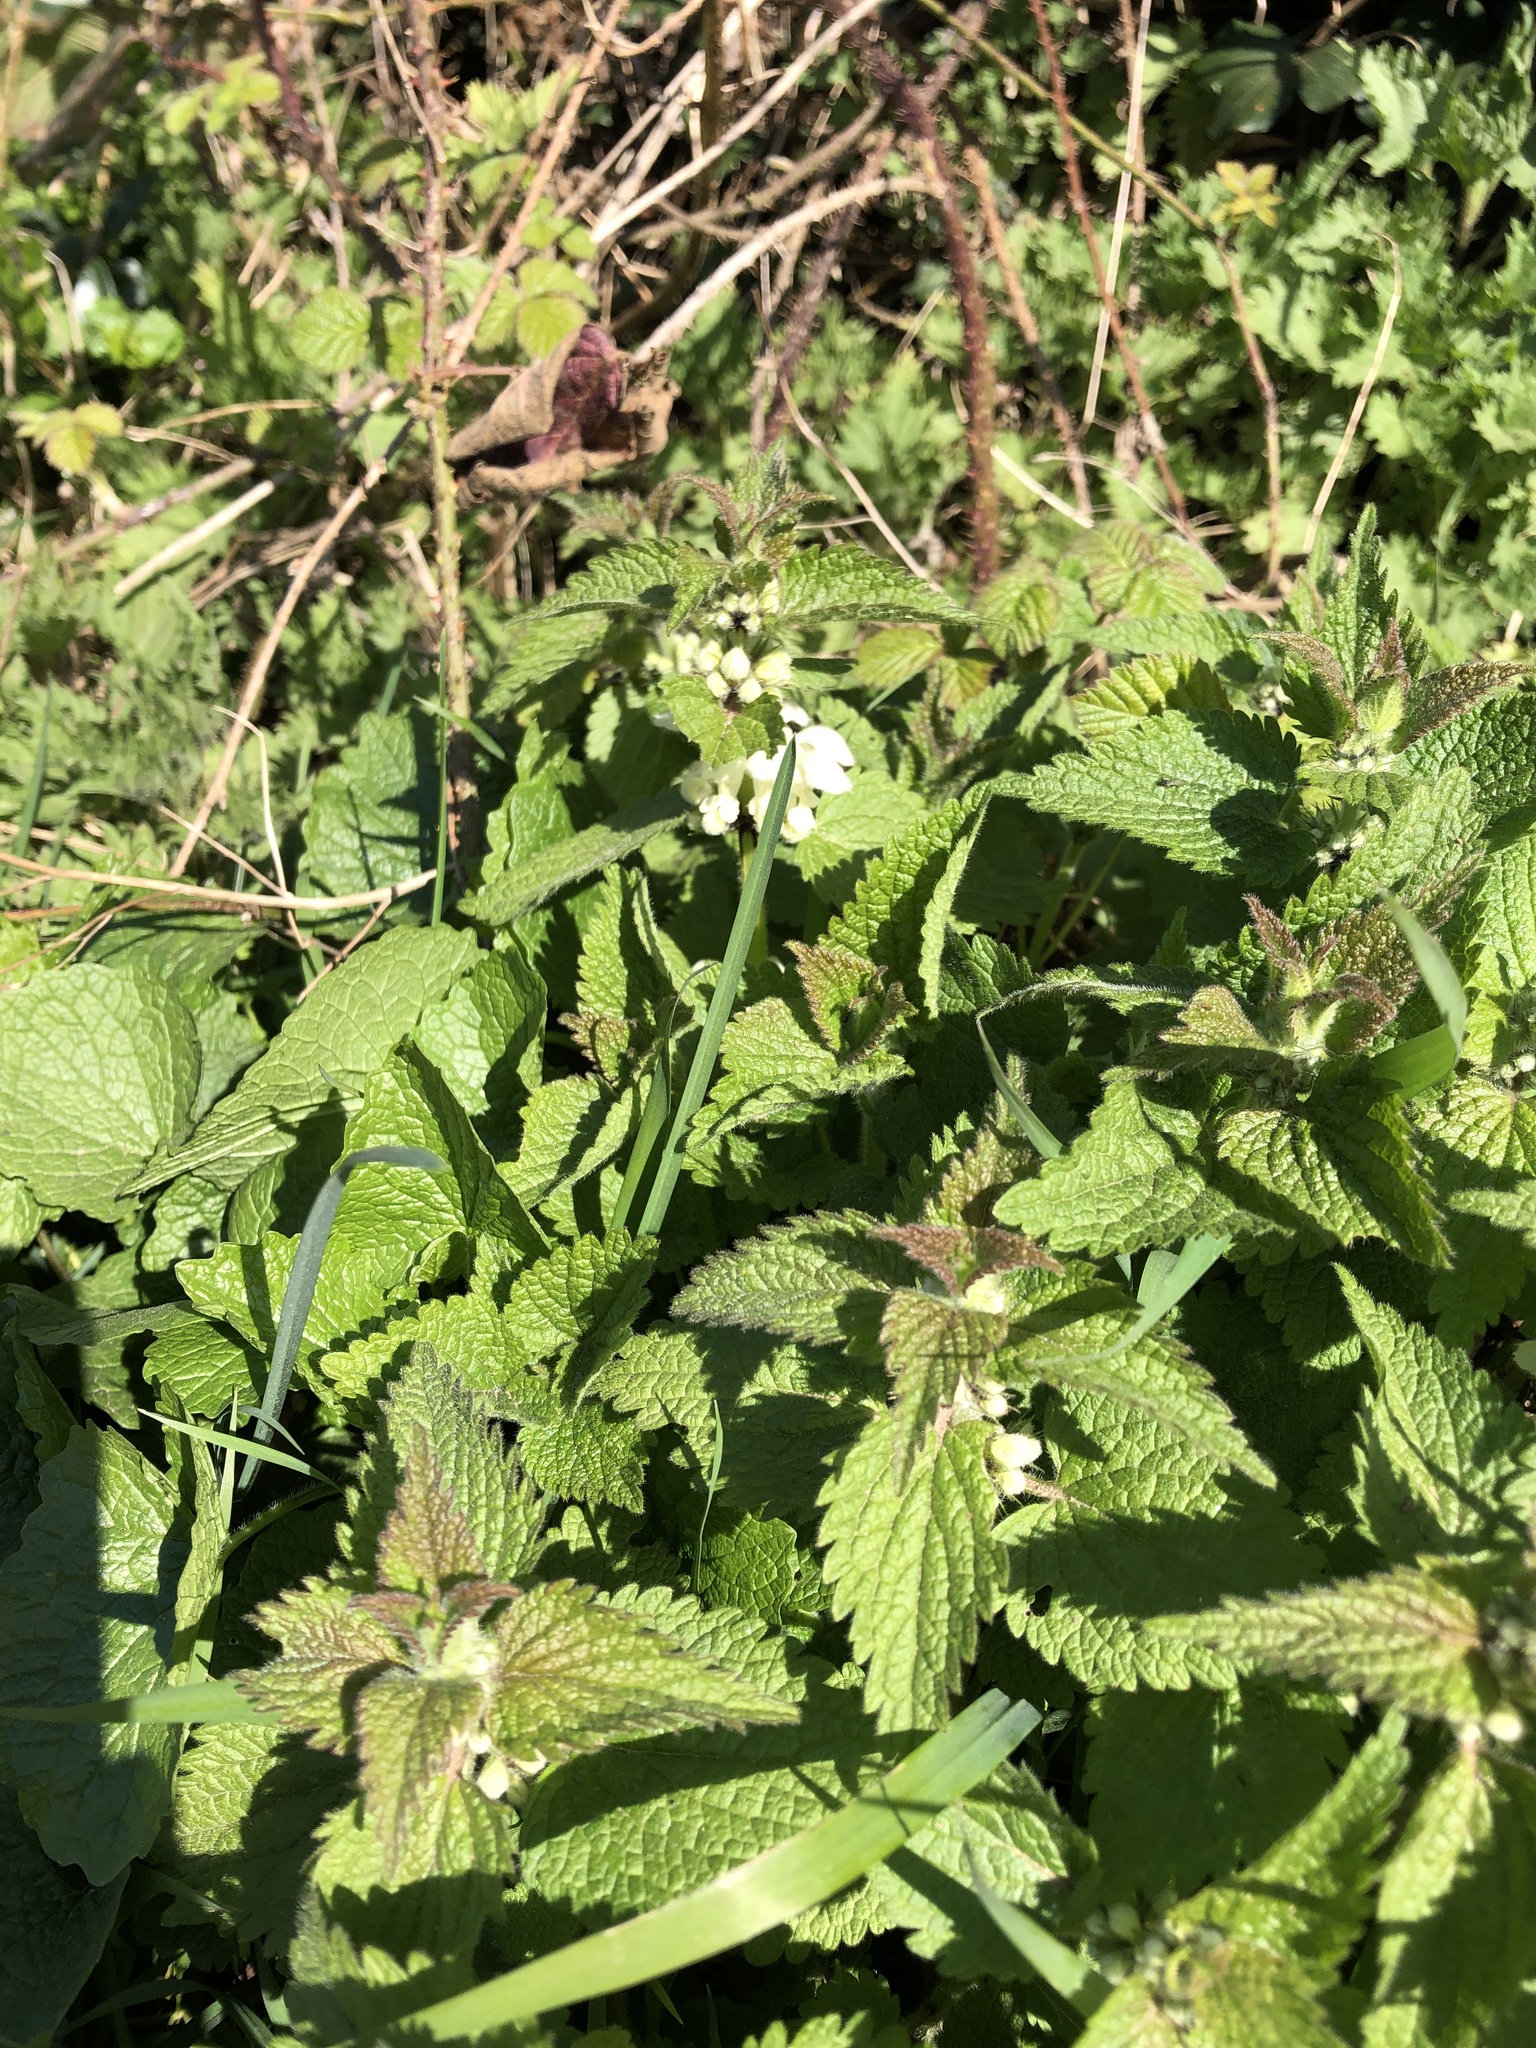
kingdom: Plantae
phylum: Tracheophyta
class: Magnoliopsida
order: Lamiales
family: Lamiaceae
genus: Lamium
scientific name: Lamium album
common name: White dead-nettle
